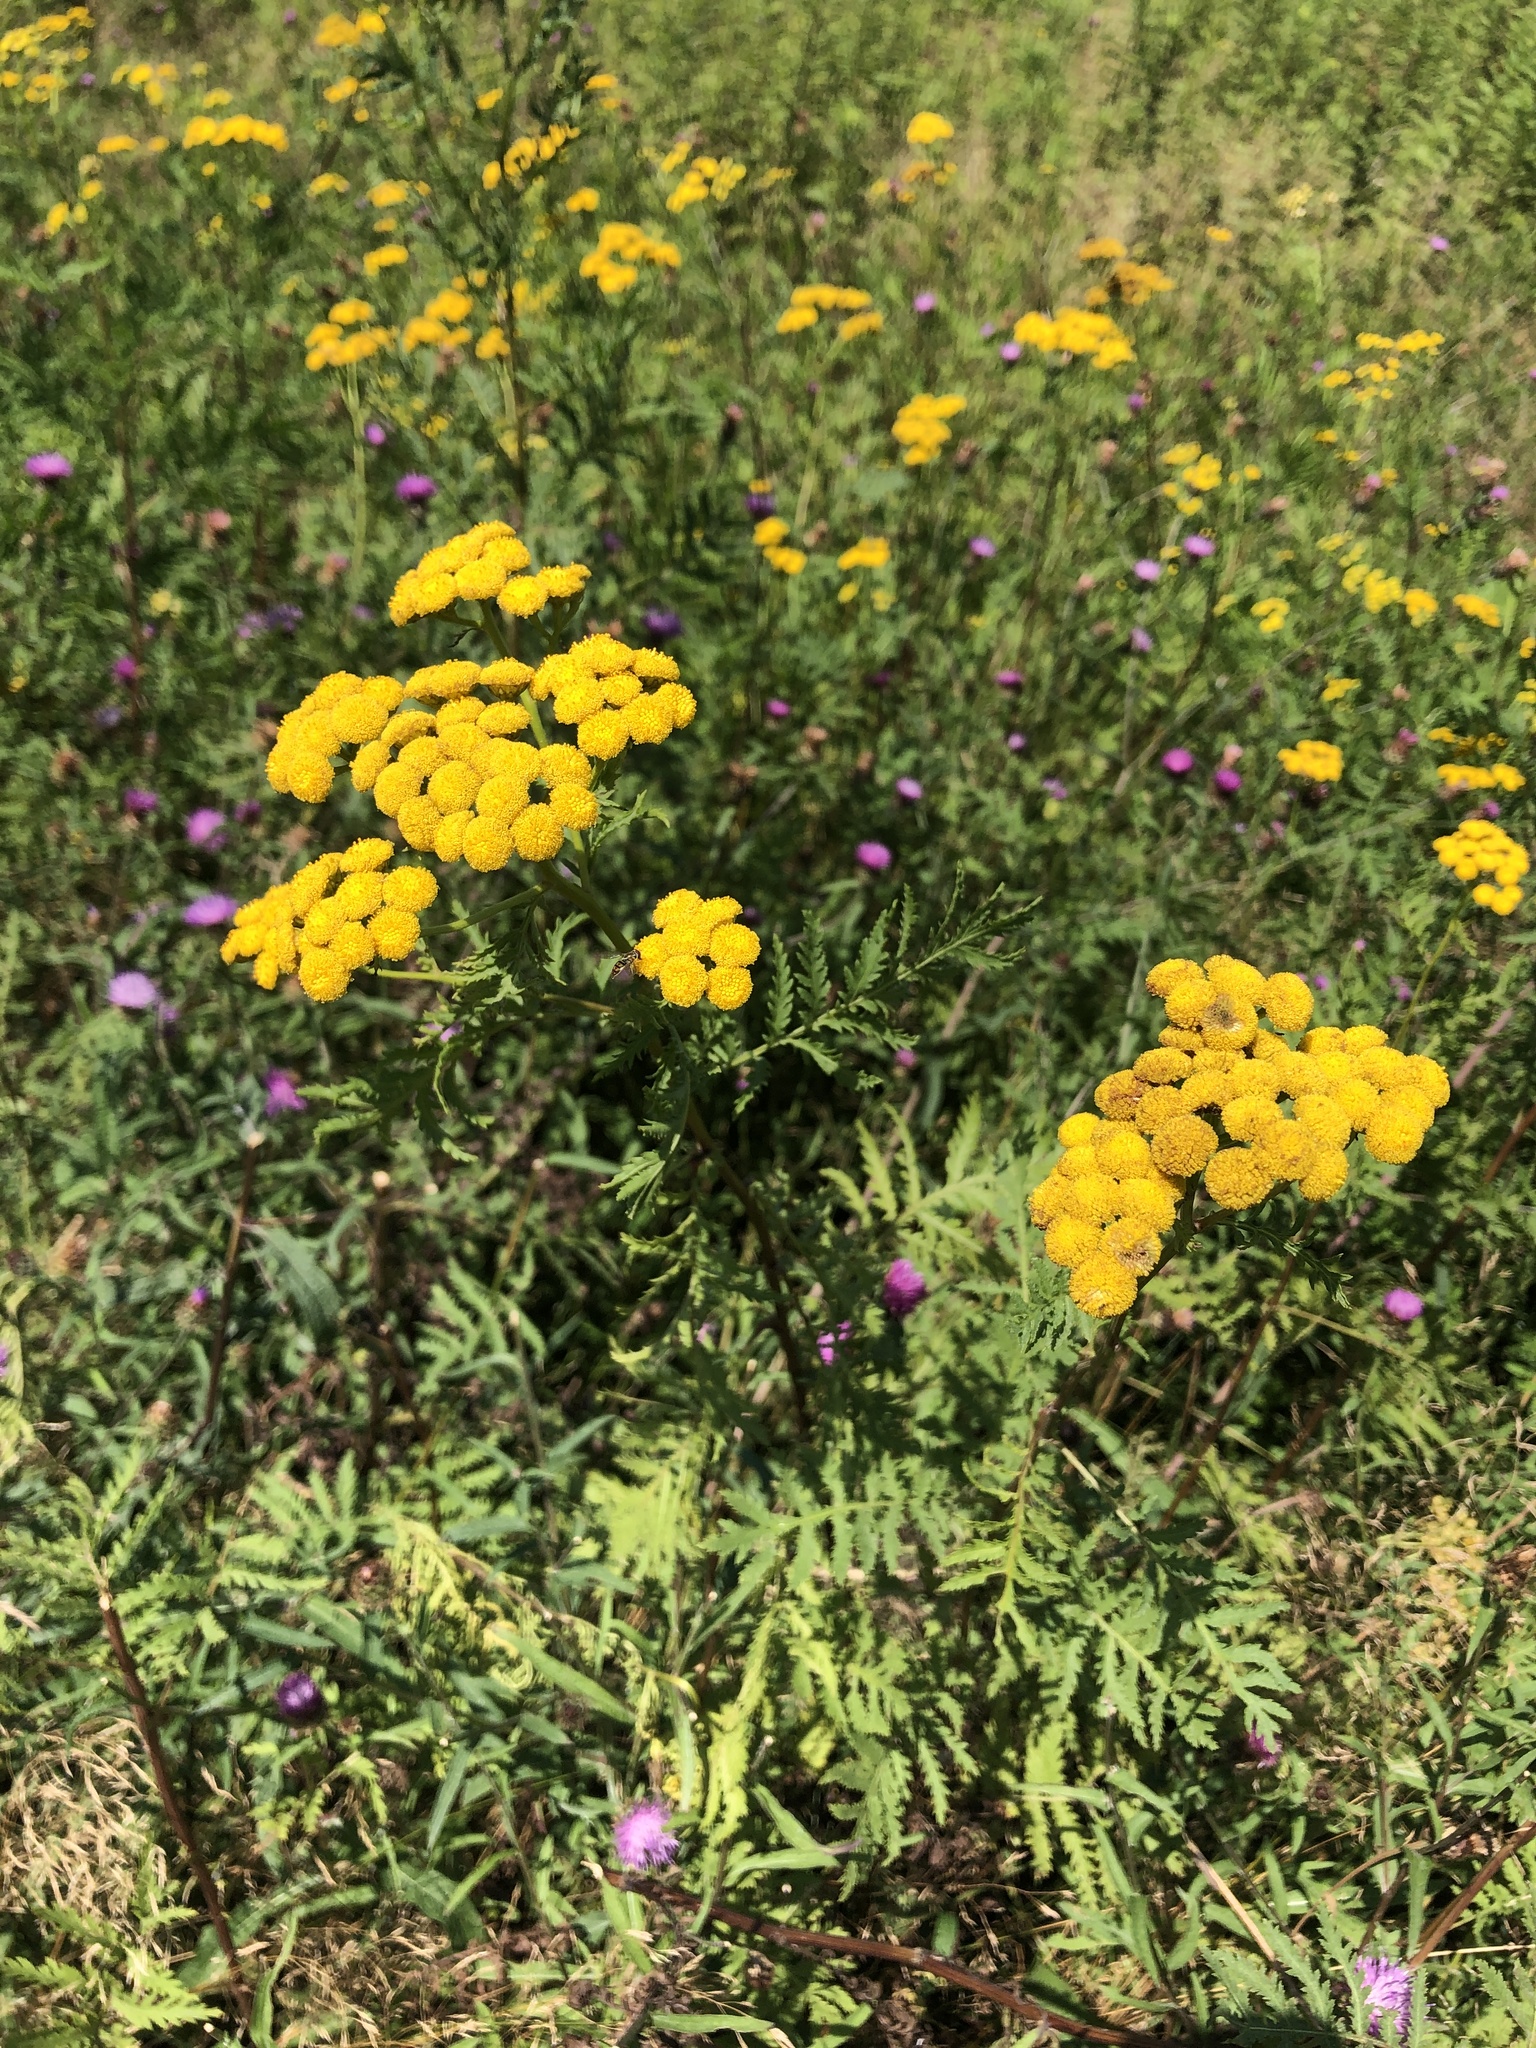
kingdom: Plantae
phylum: Tracheophyta
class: Magnoliopsida
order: Asterales
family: Asteraceae
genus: Tanacetum
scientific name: Tanacetum vulgare
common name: Common tansy
